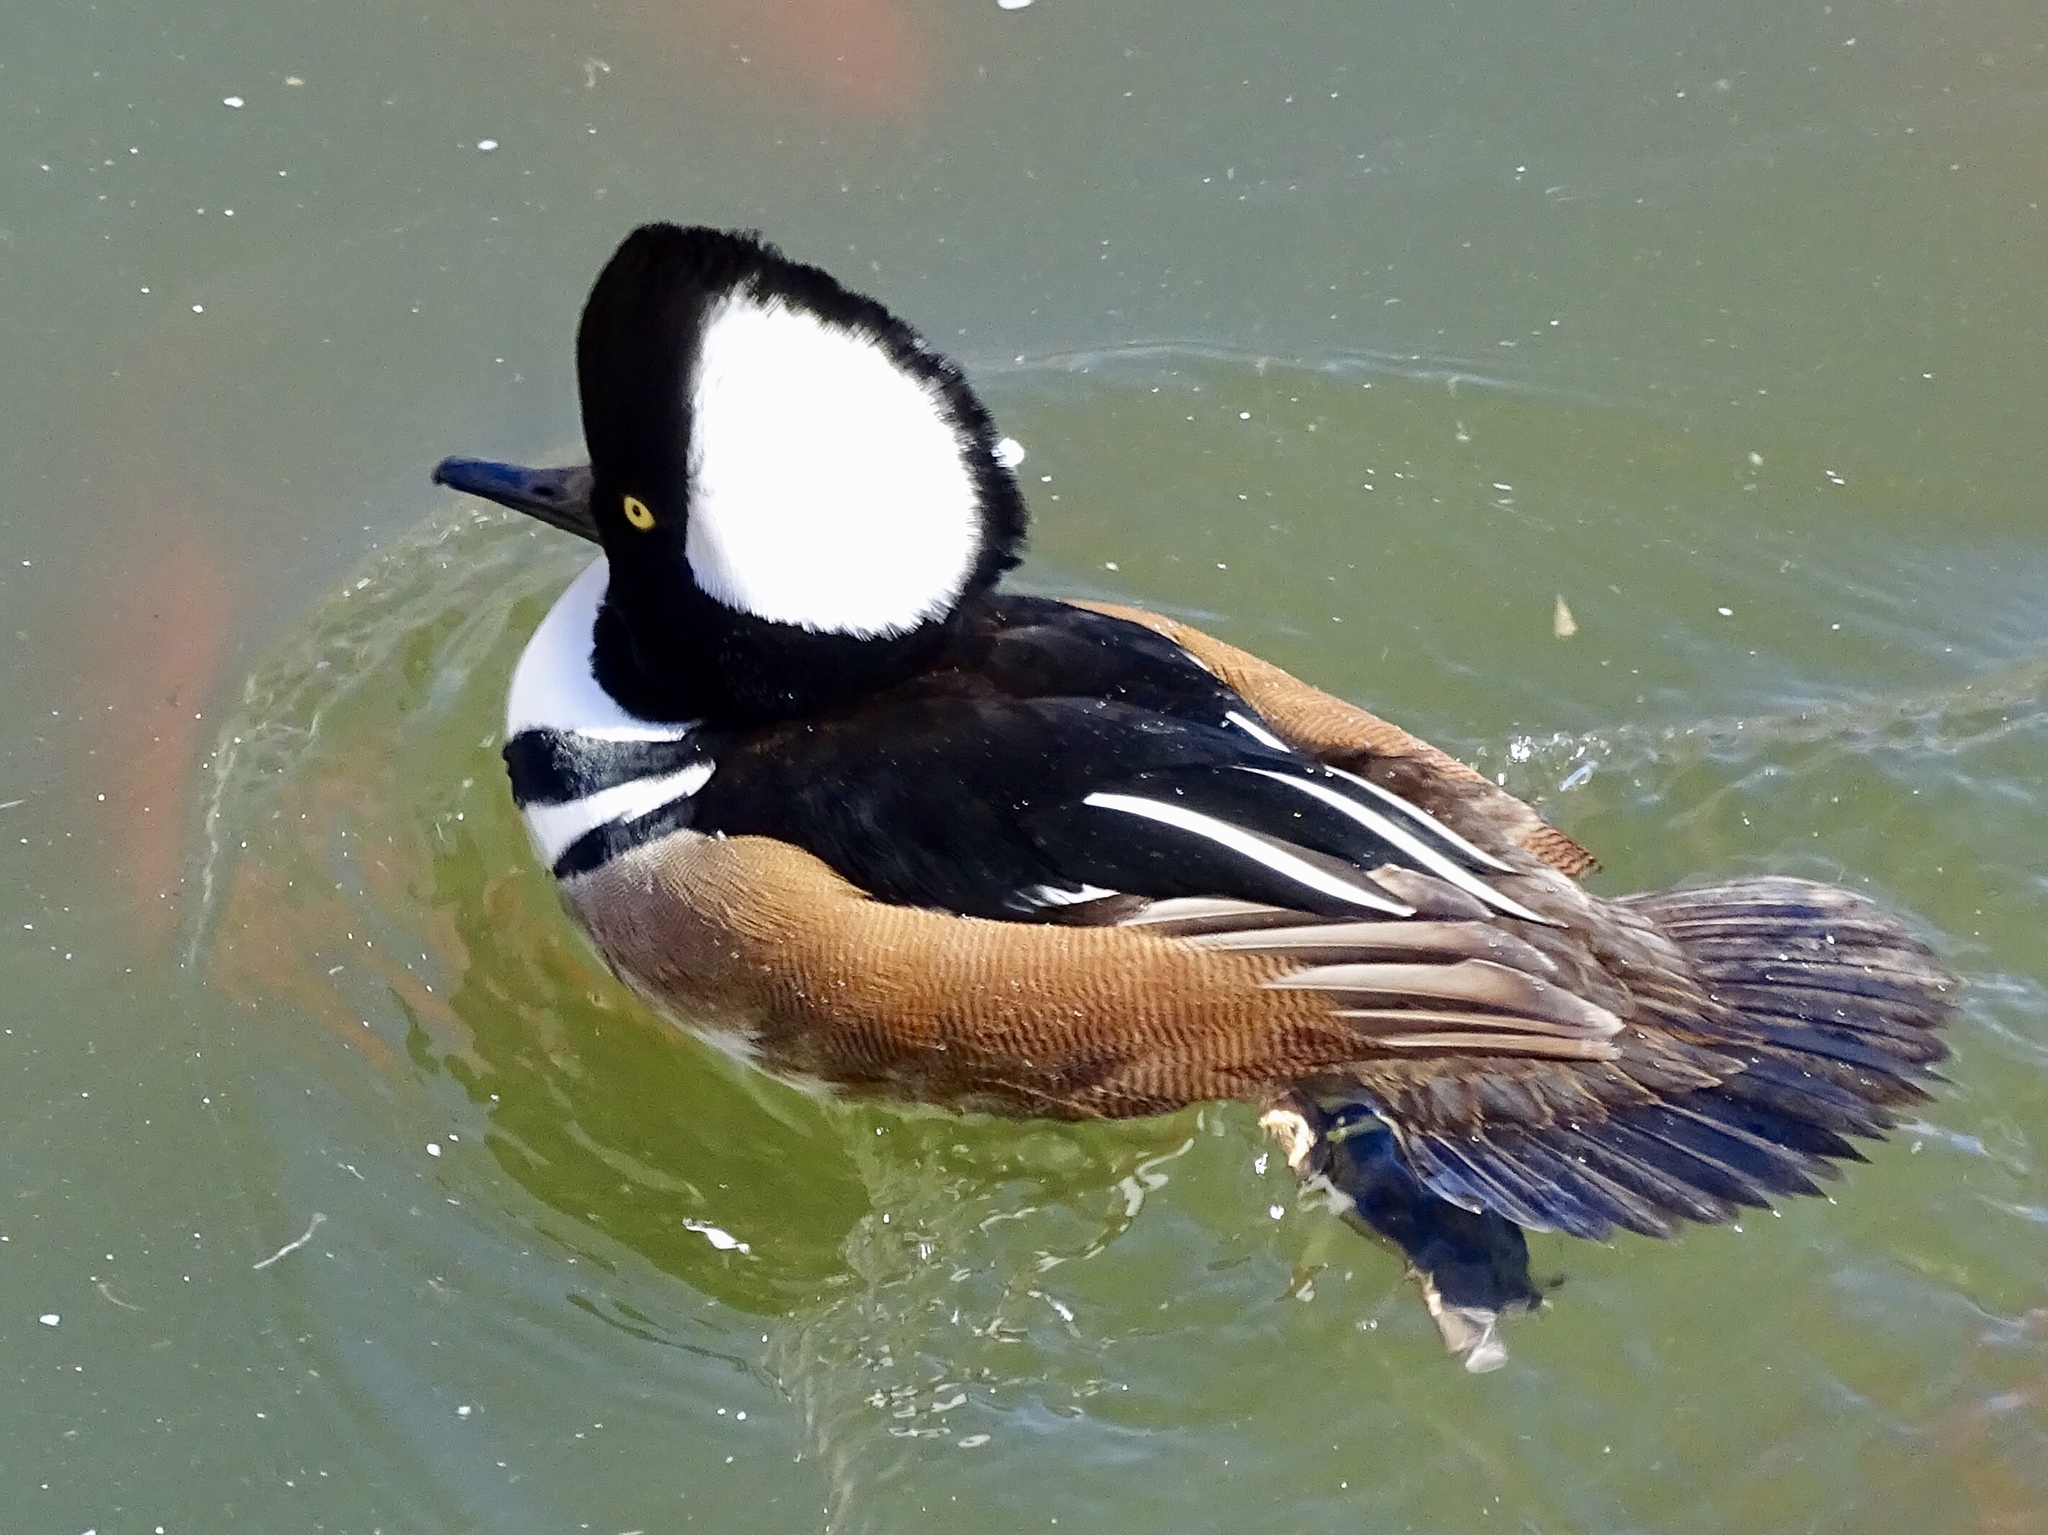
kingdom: Animalia
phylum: Chordata
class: Aves
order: Anseriformes
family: Anatidae
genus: Lophodytes
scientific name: Lophodytes cucullatus
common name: Hooded merganser
